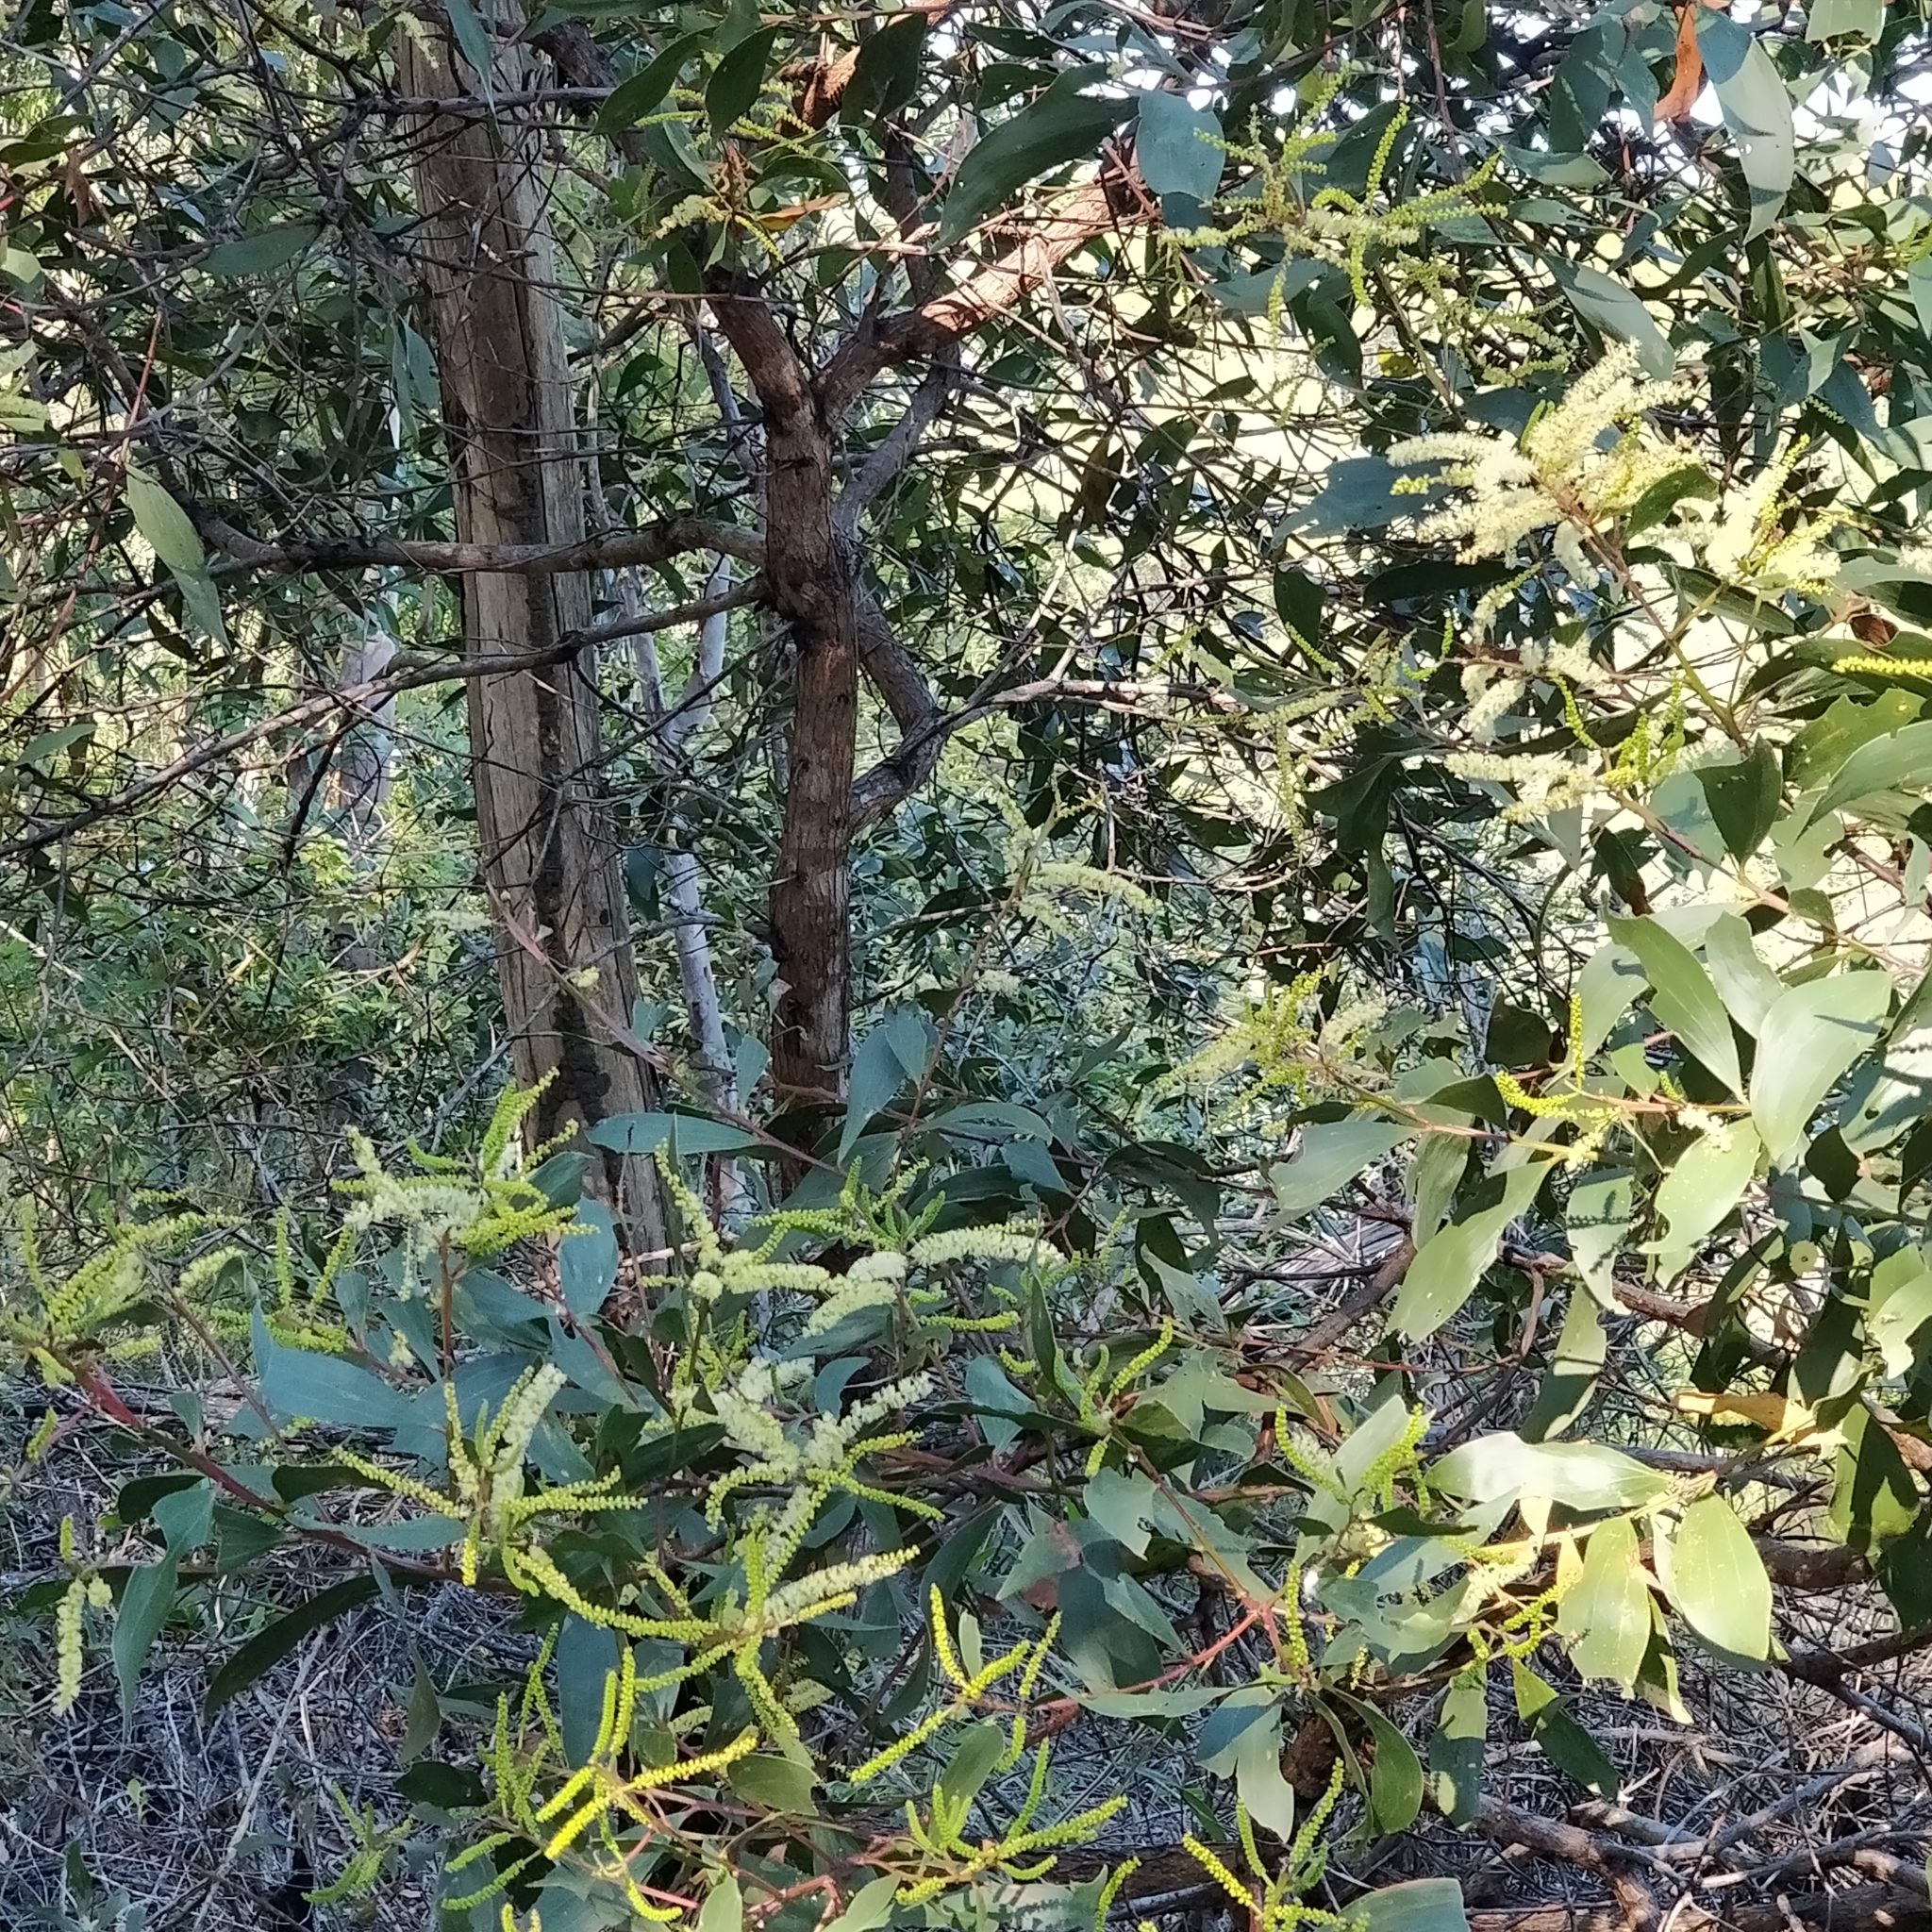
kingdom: Plantae
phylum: Tracheophyta
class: Magnoliopsida
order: Fabales
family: Fabaceae
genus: Acacia
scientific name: Acacia leiocalyx
